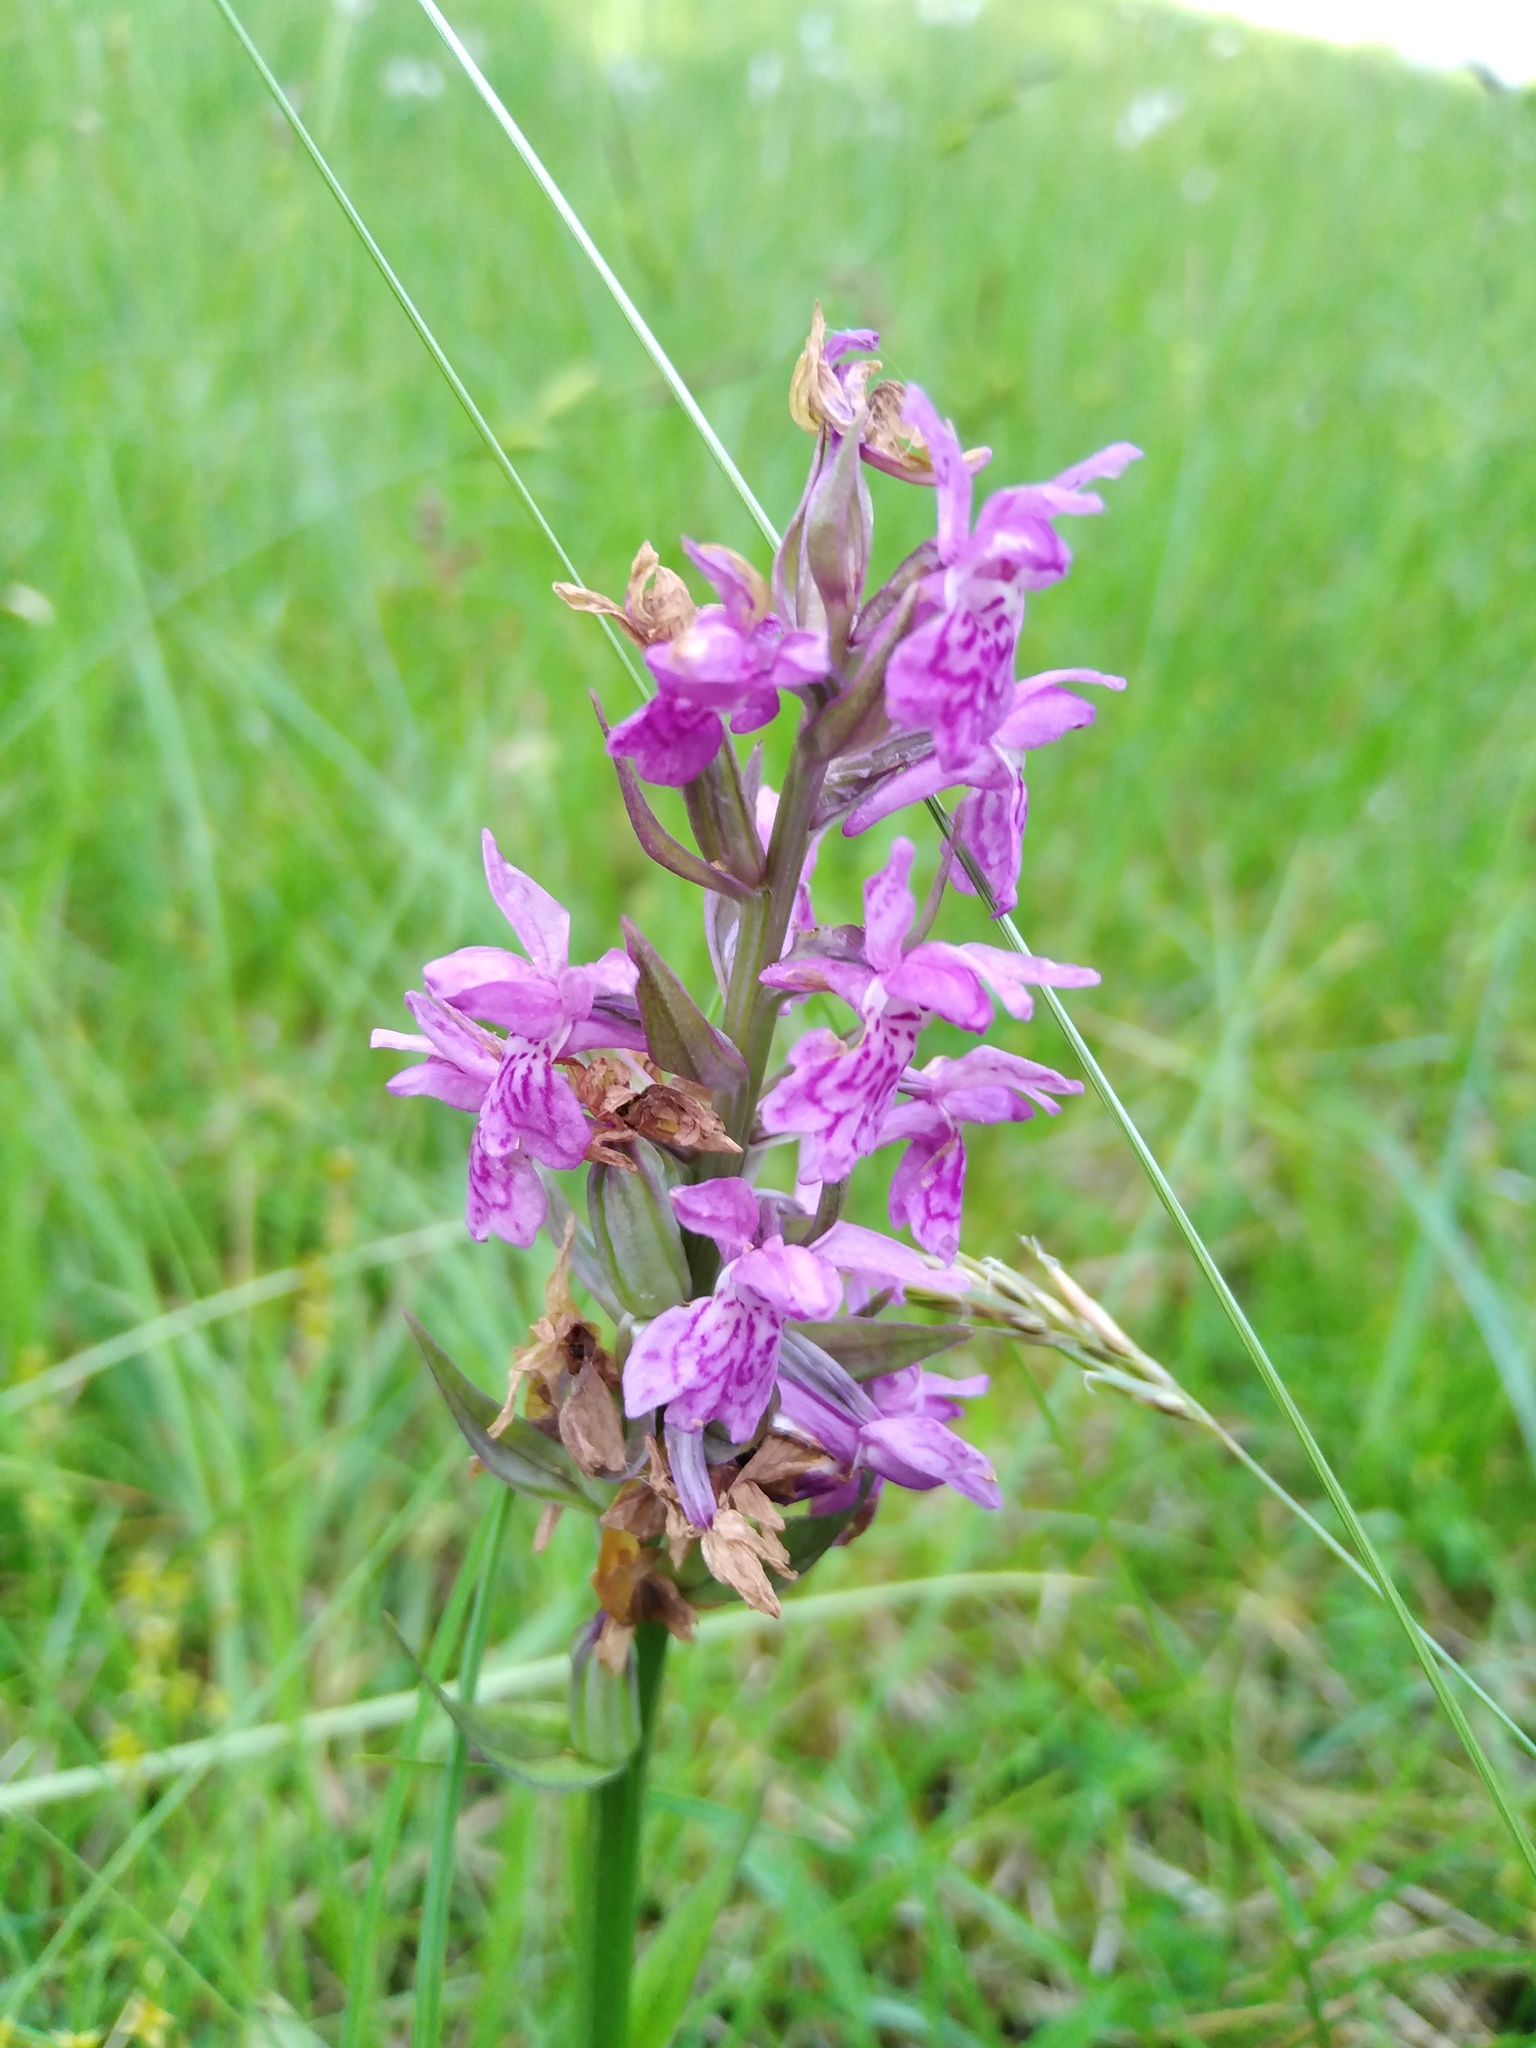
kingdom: Plantae
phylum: Tracheophyta
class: Liliopsida
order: Asparagales
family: Orchidaceae
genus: Dactylorhiza
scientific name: Dactylorhiza majalis
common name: Marsh orchid
